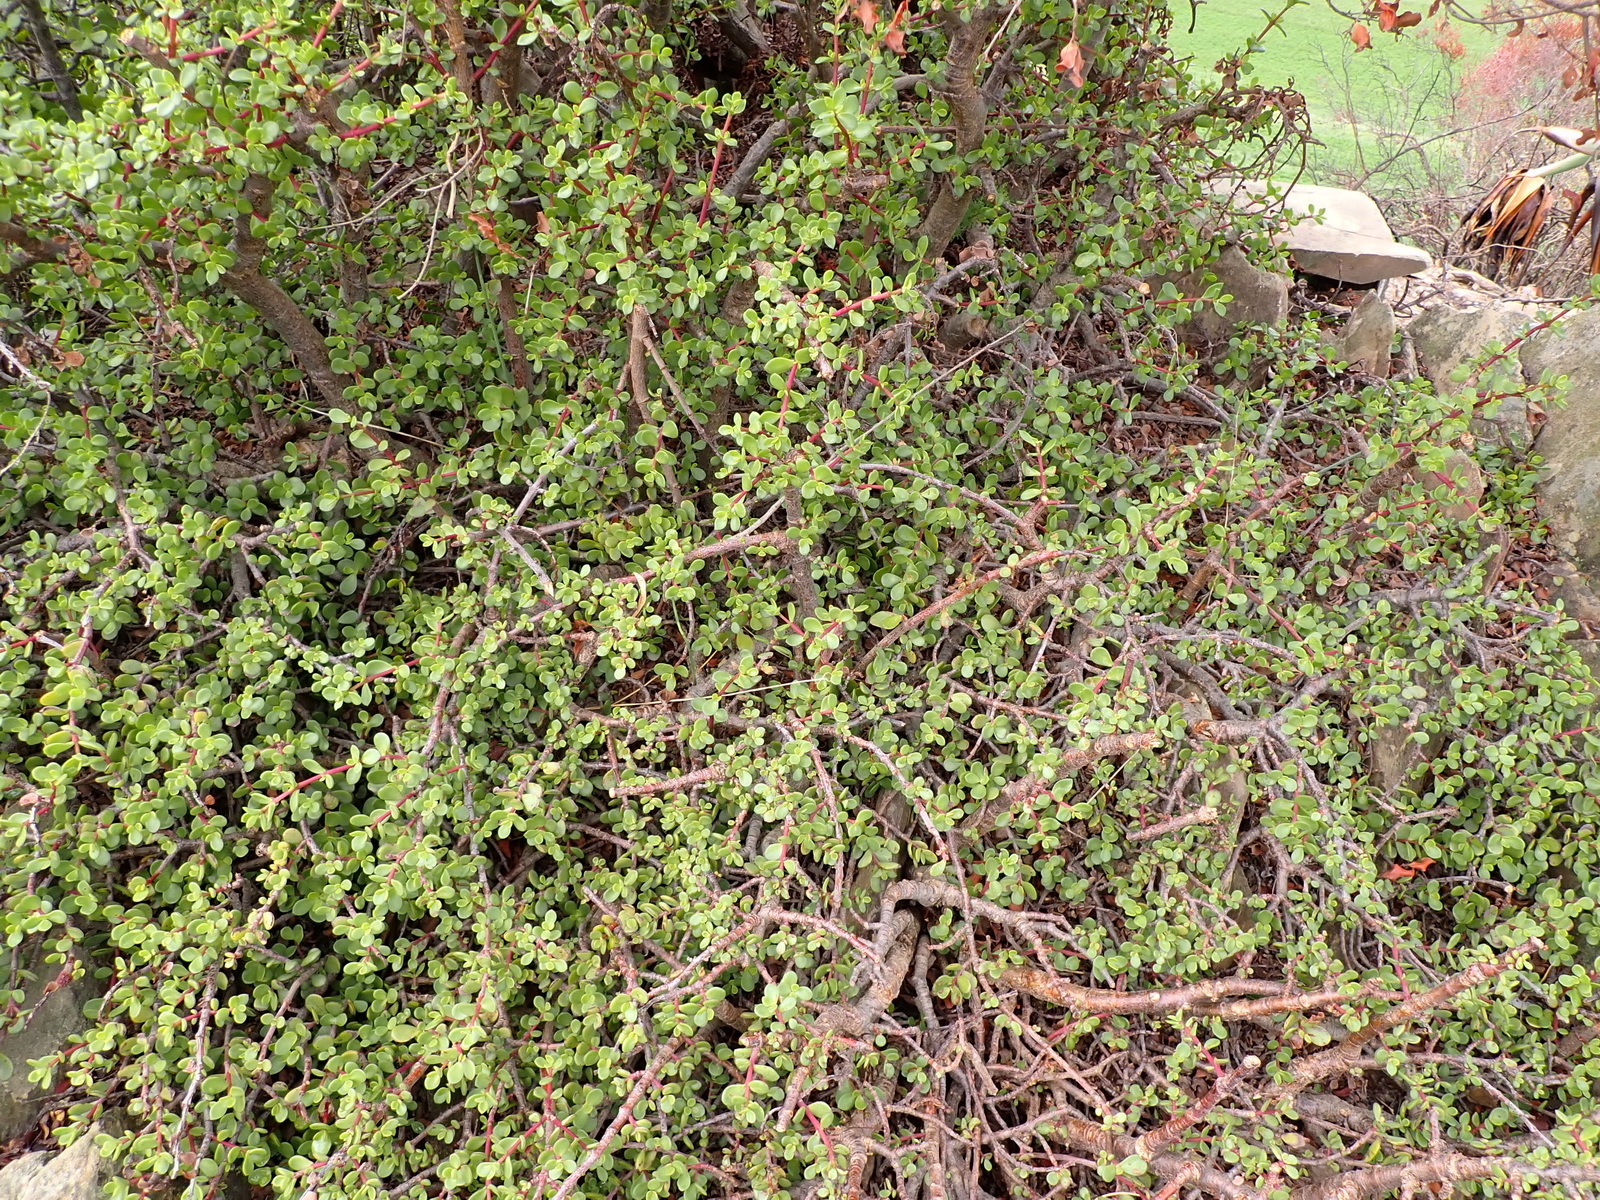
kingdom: Plantae
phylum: Tracheophyta
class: Magnoliopsida
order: Caryophyllales
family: Didiereaceae
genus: Portulacaria
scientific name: Portulacaria afra
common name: Elephant-bush
